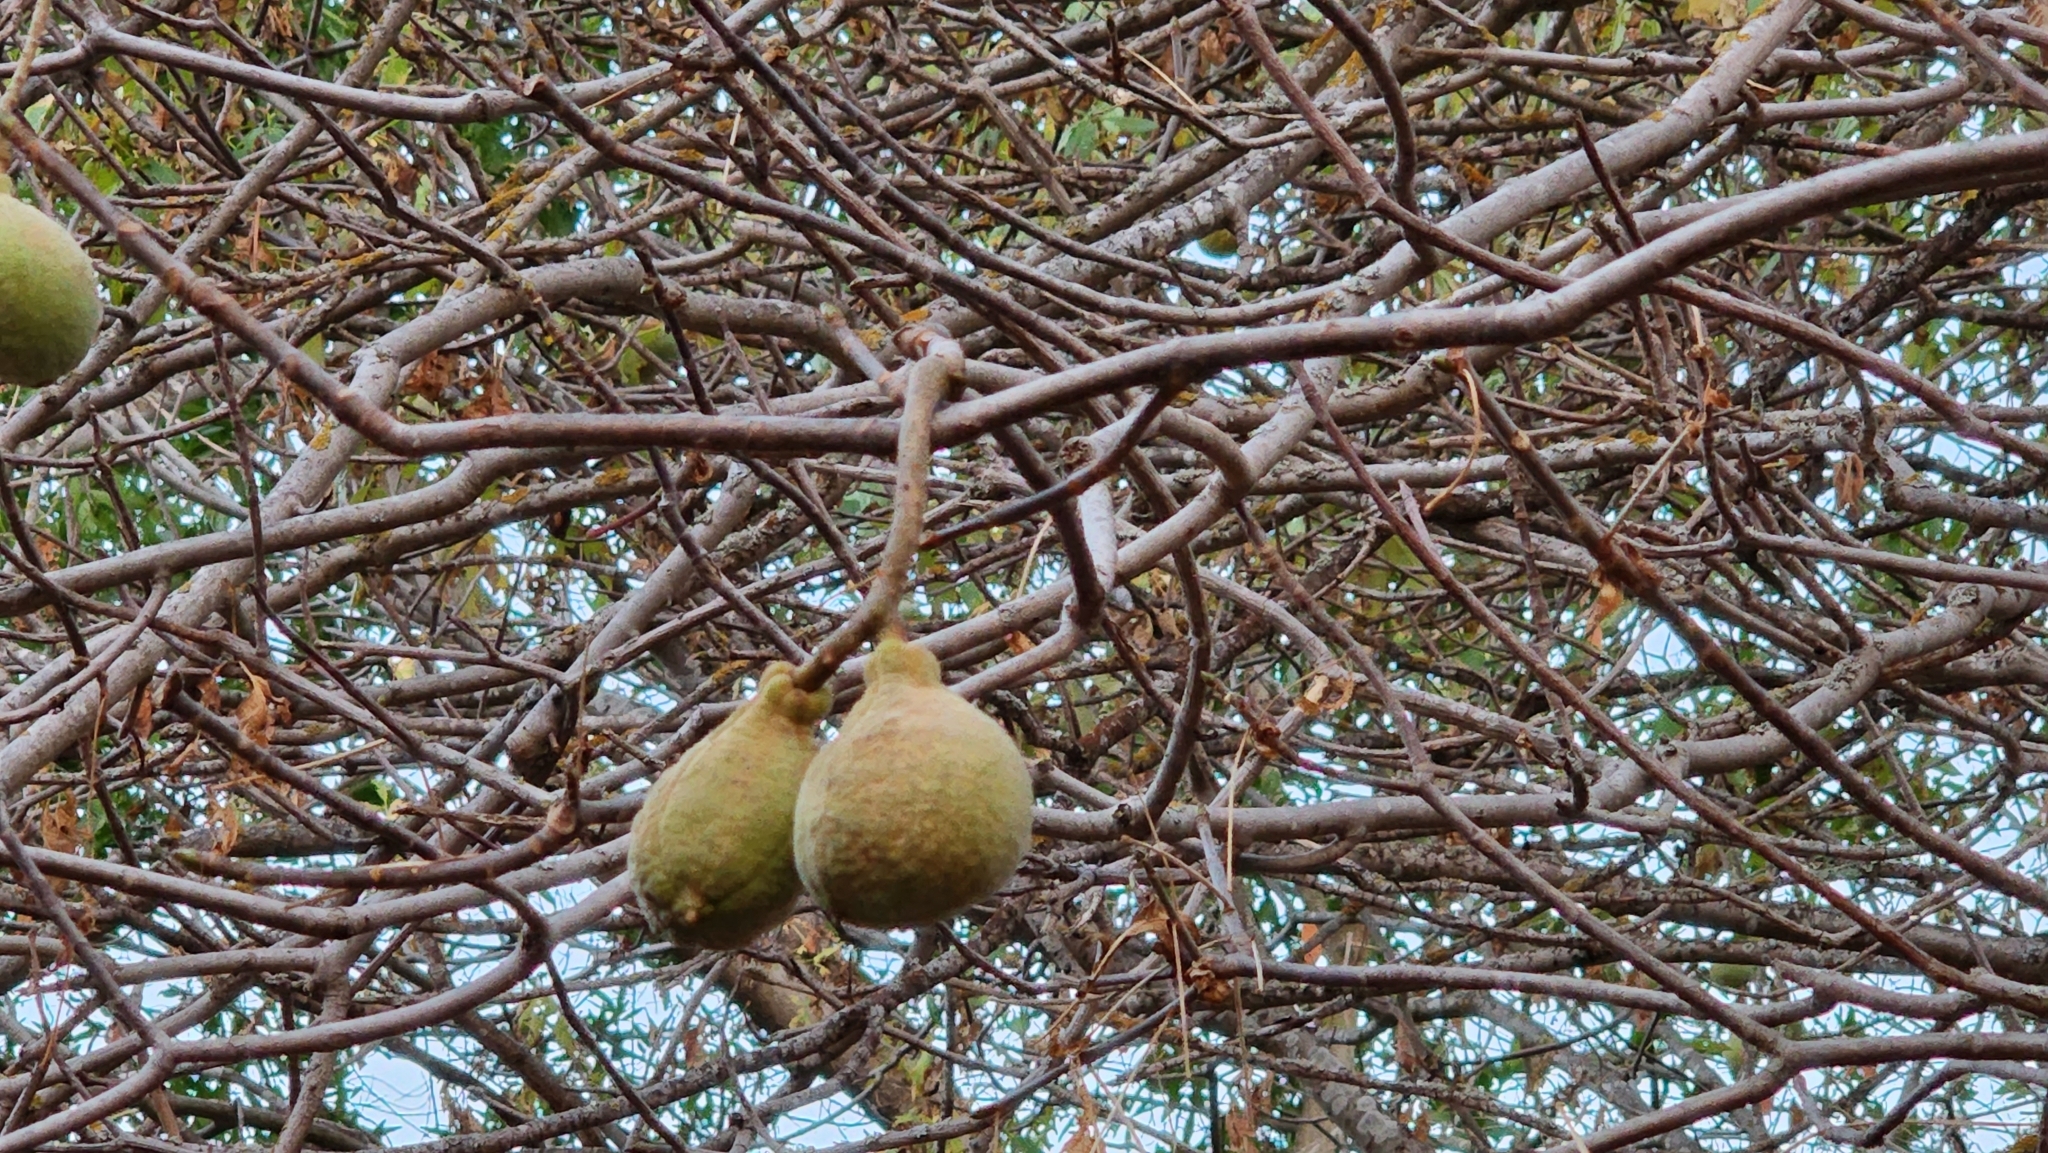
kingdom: Plantae
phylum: Tracheophyta
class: Magnoliopsida
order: Sapindales
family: Sapindaceae
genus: Aesculus
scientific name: Aesculus californica
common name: California buckeye
